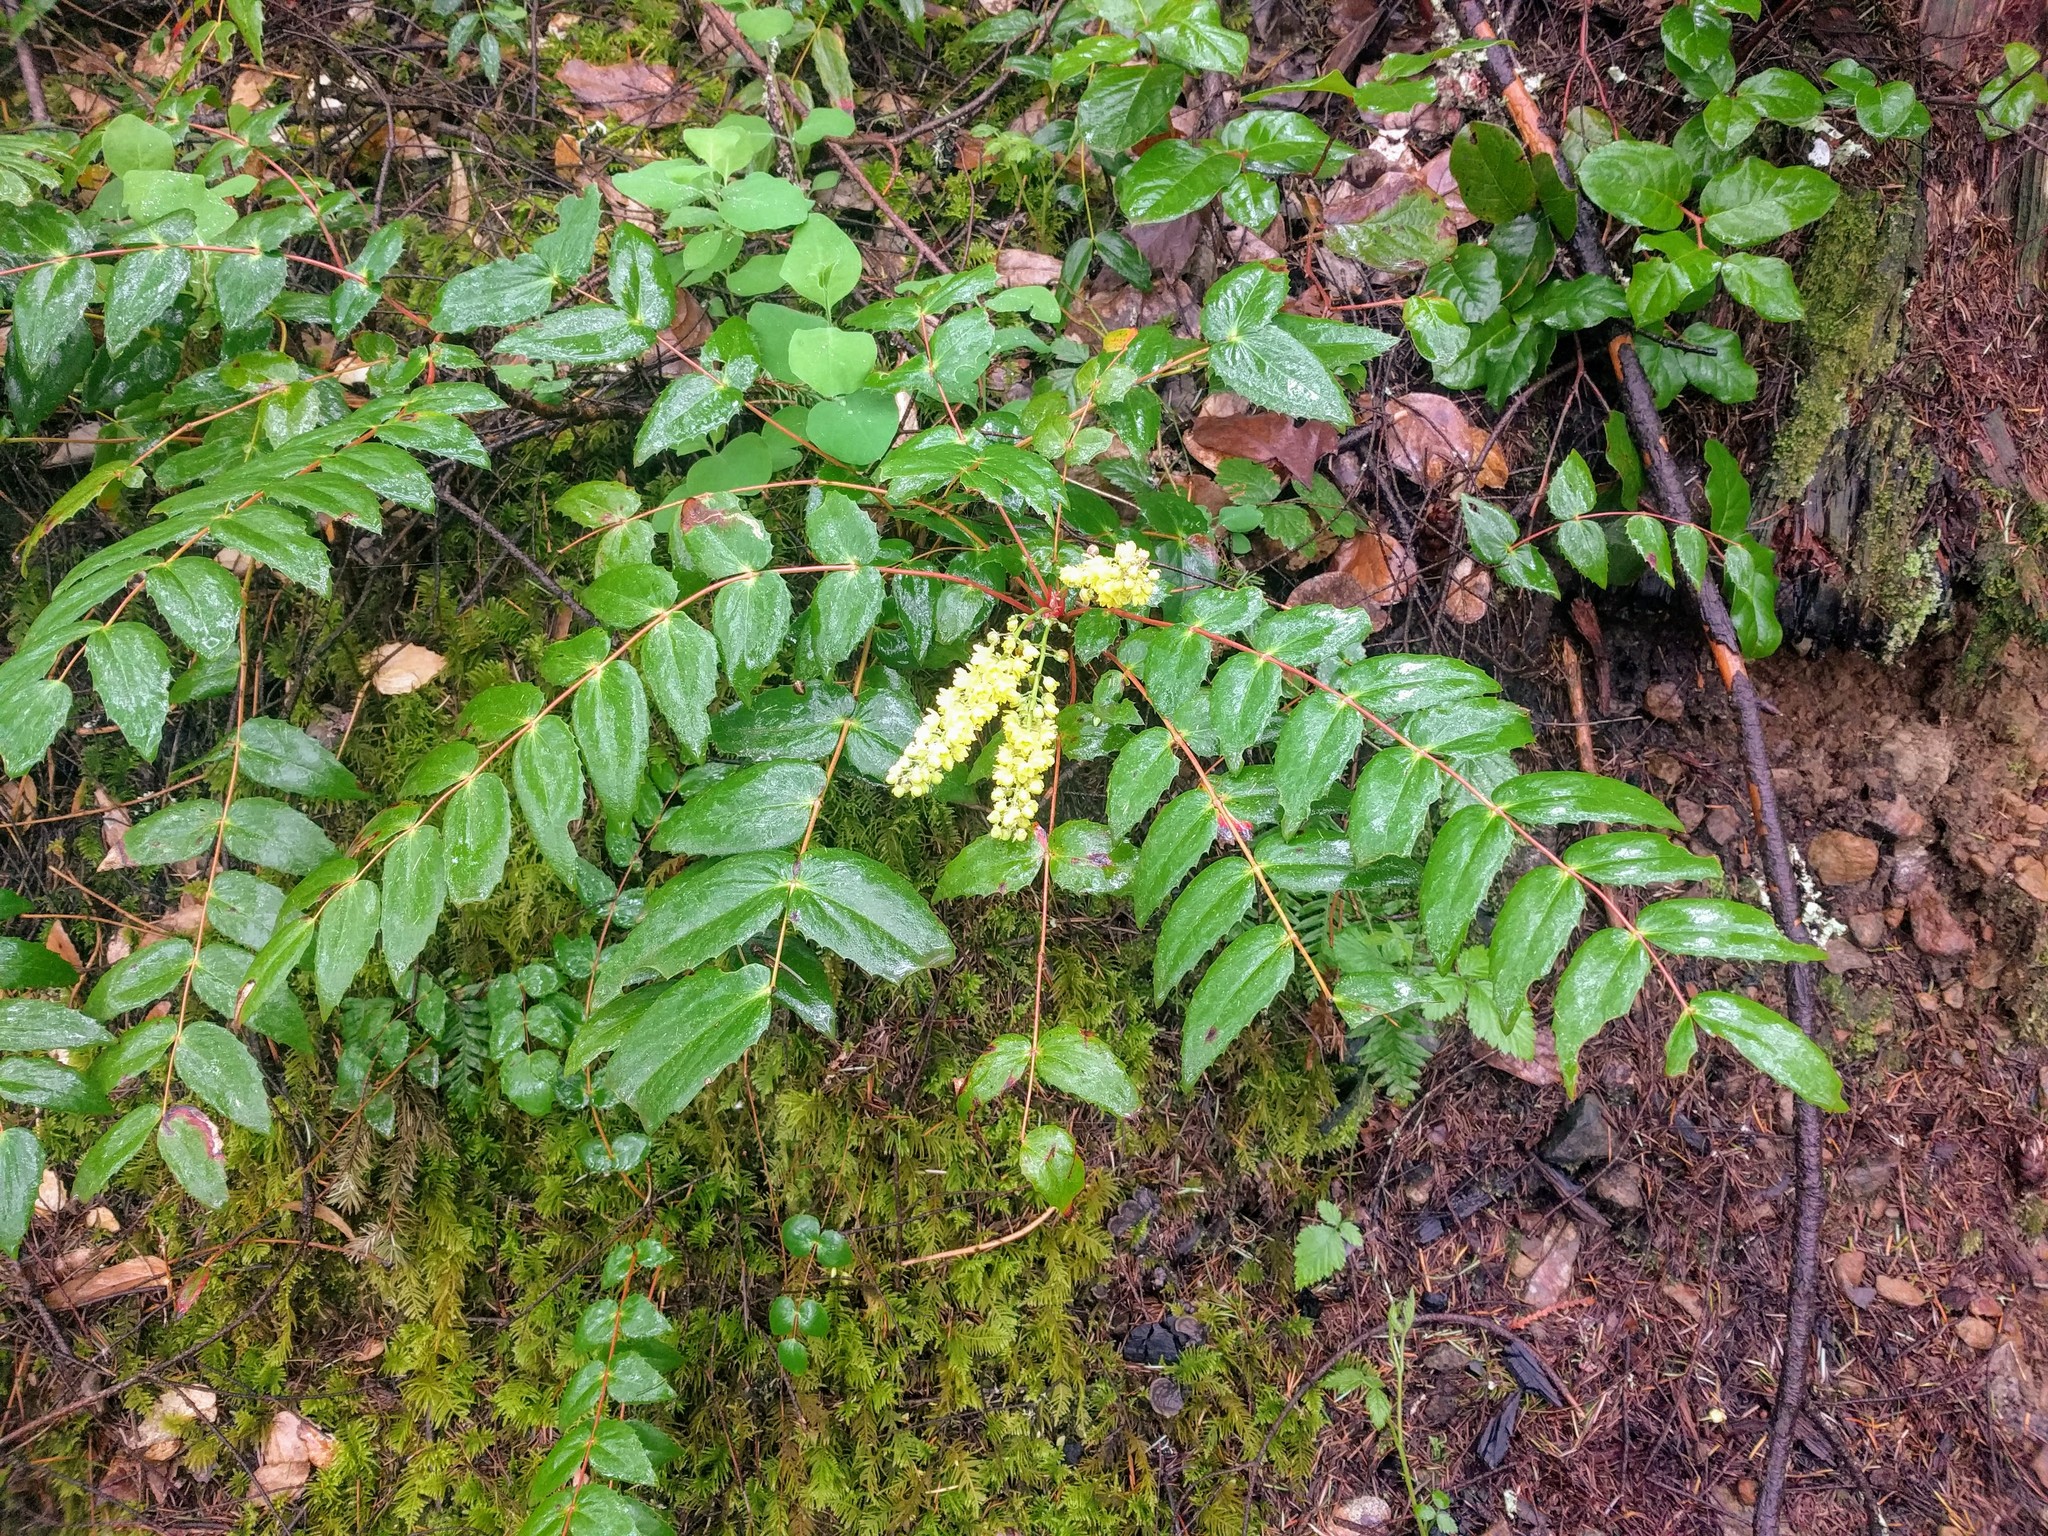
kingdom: Plantae
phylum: Tracheophyta
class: Magnoliopsida
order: Ranunculales
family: Berberidaceae
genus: Mahonia
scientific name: Mahonia nervosa
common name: Cascade oregon-grape
